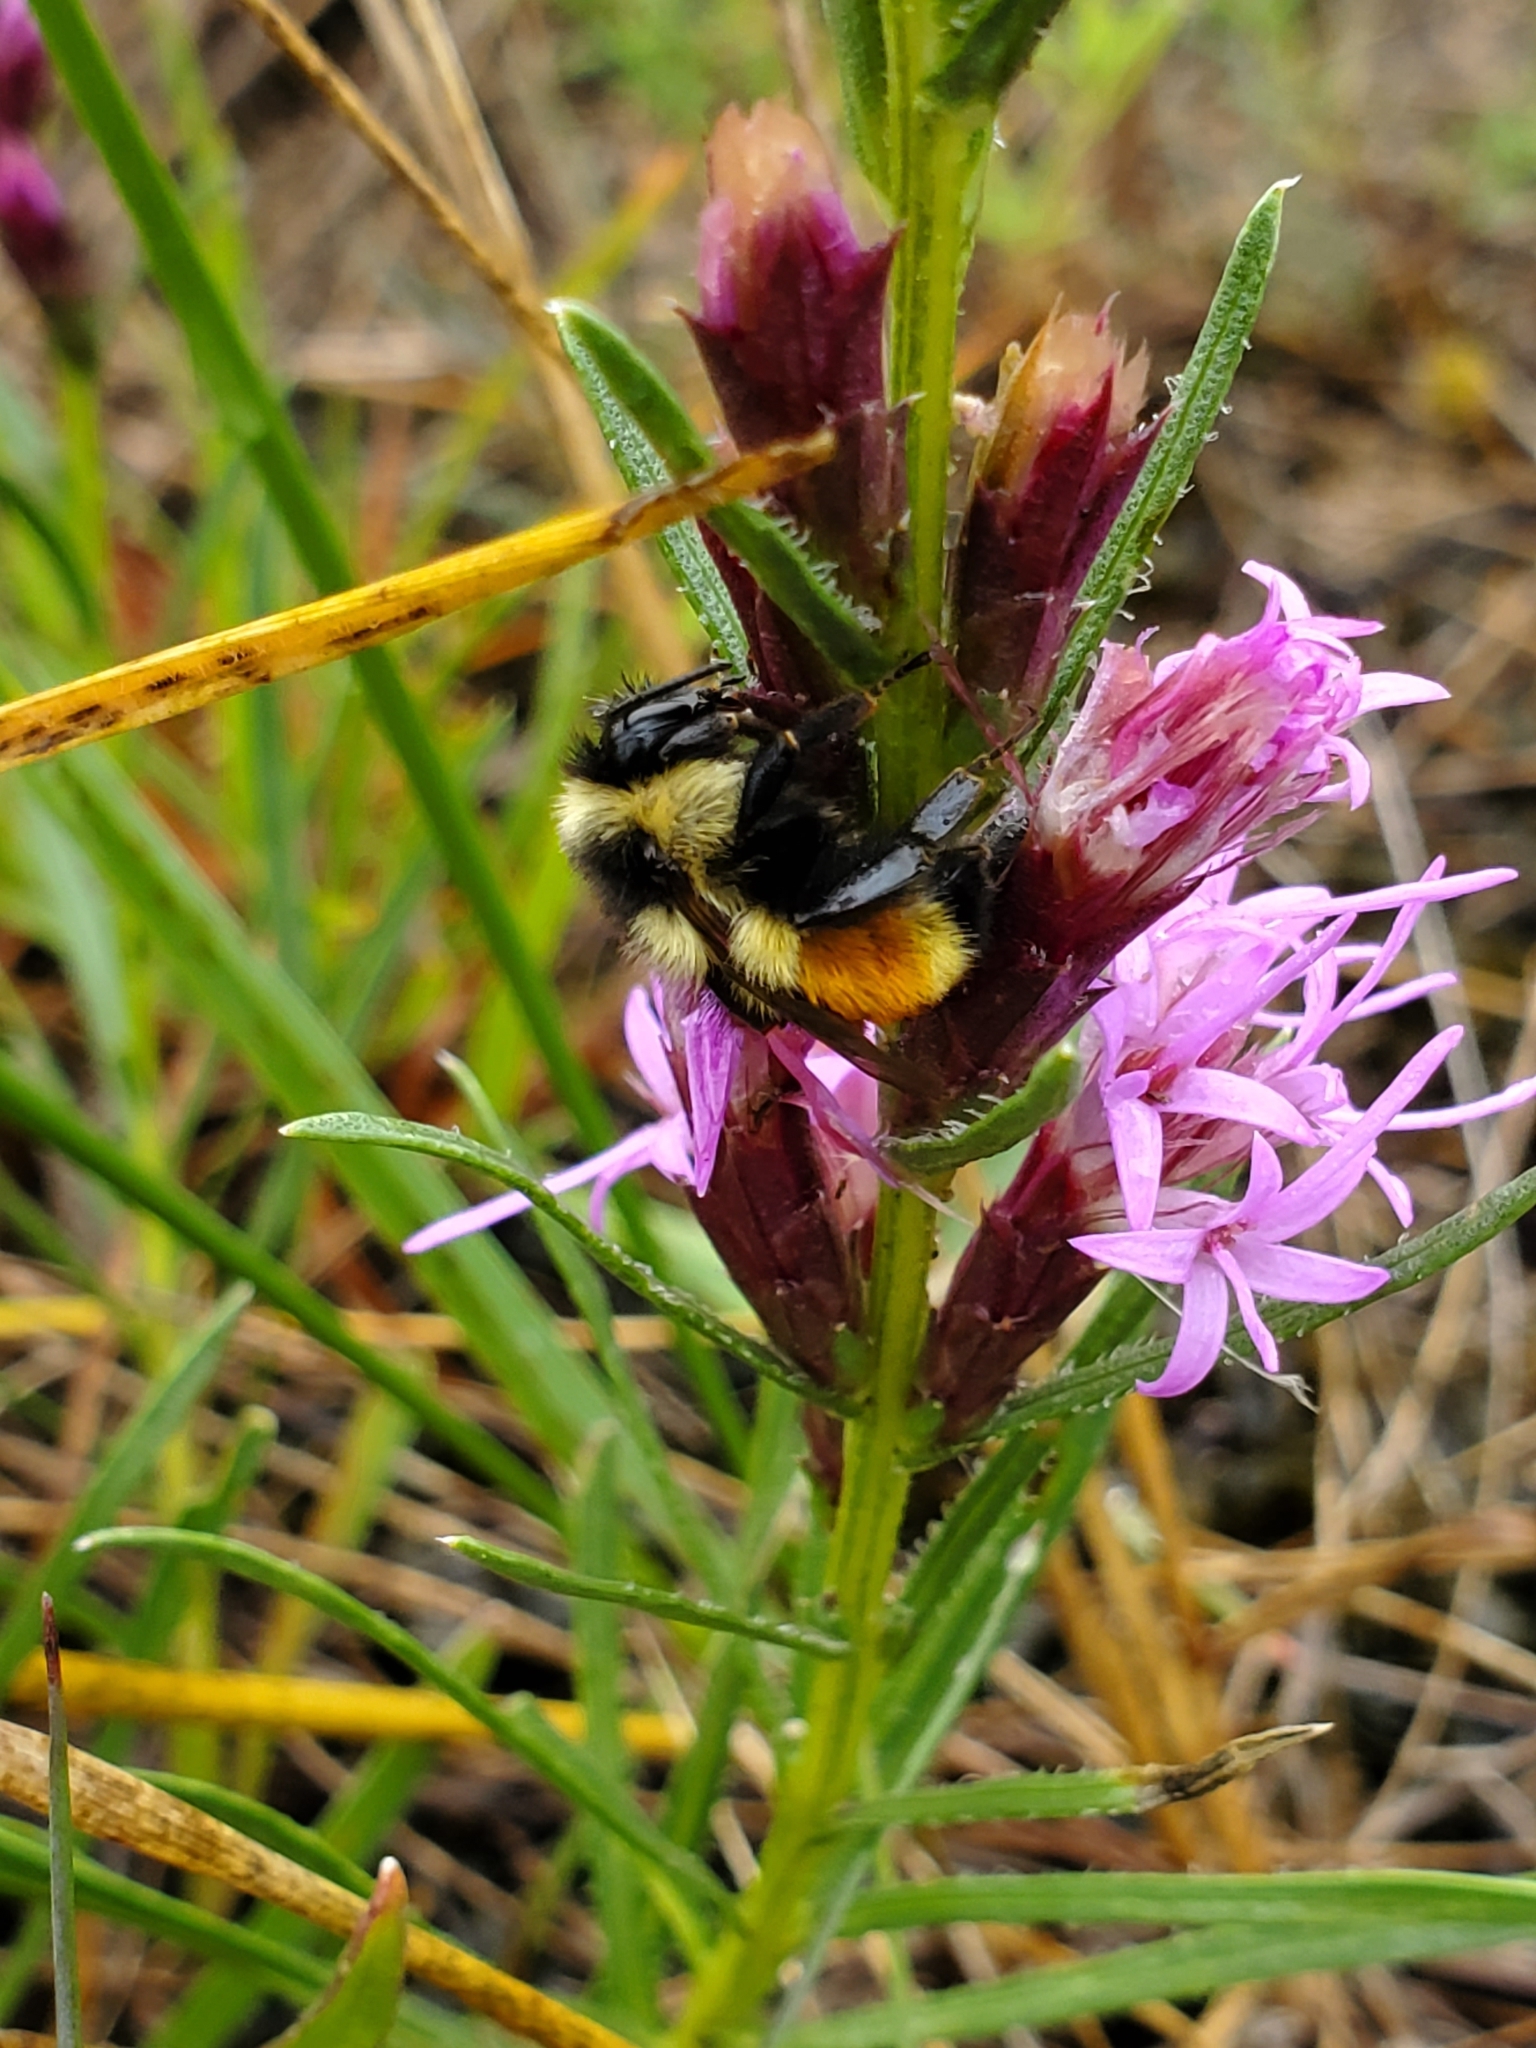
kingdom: Animalia
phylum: Arthropoda
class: Insecta
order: Hymenoptera
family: Apidae
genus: Bombus
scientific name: Bombus ternarius
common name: Tri-colored bumble bee
